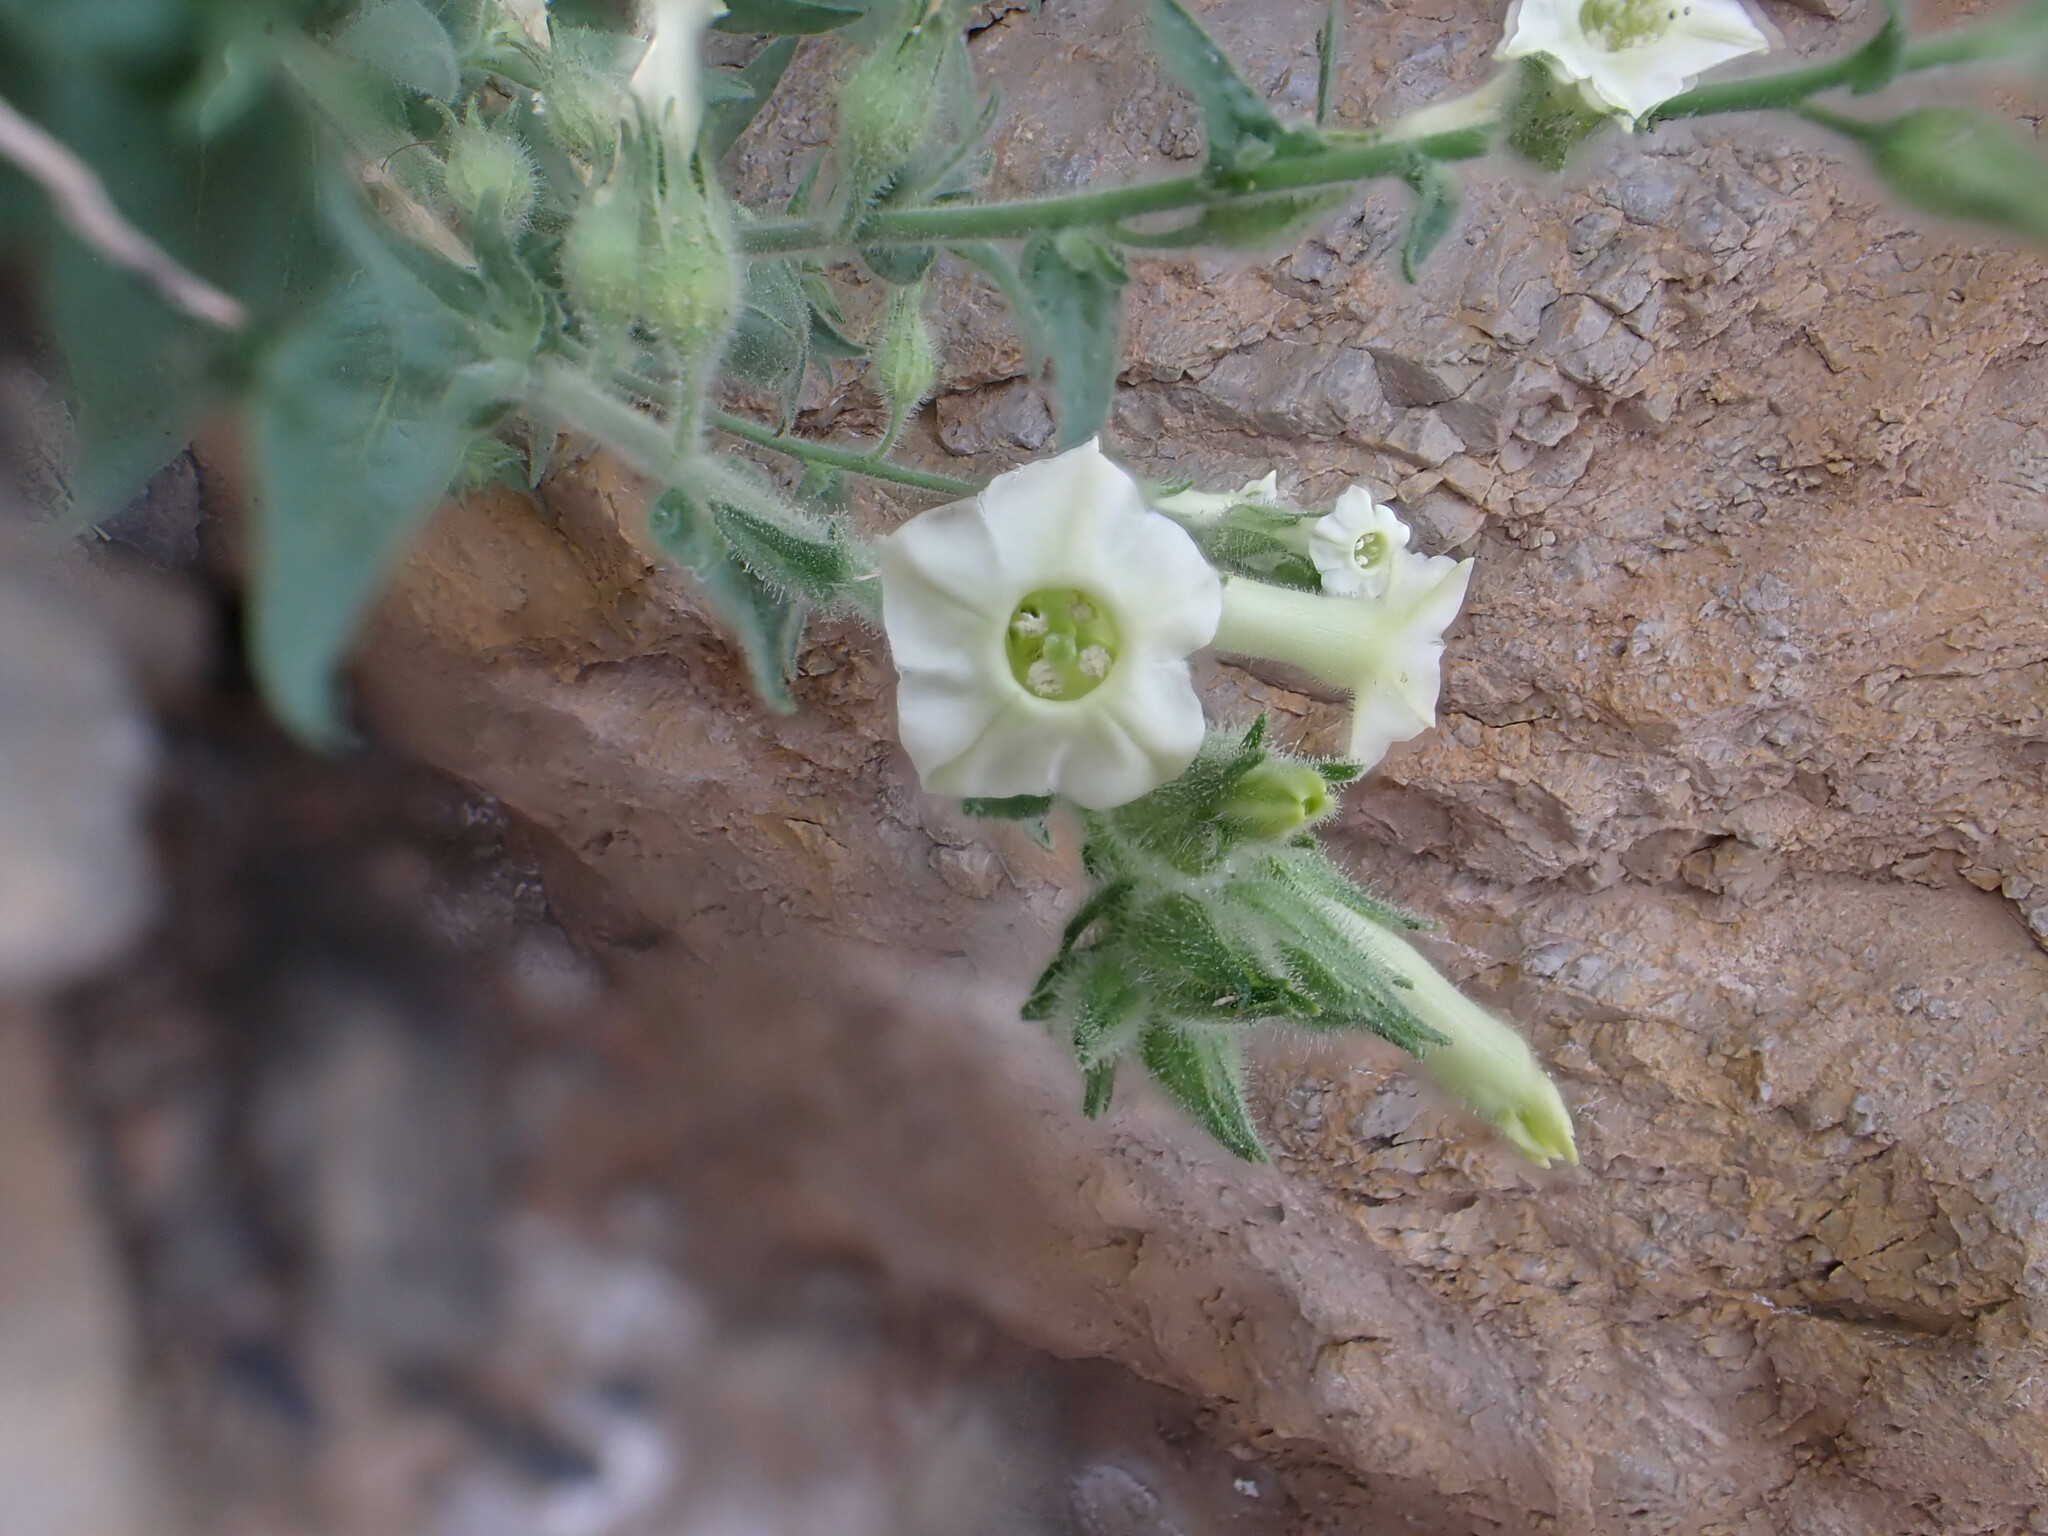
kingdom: Plantae
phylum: Tracheophyta
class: Magnoliopsida
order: Solanales
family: Solanaceae
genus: Nicotiana
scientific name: Nicotiana obtusifolia
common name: Desert tobacco
